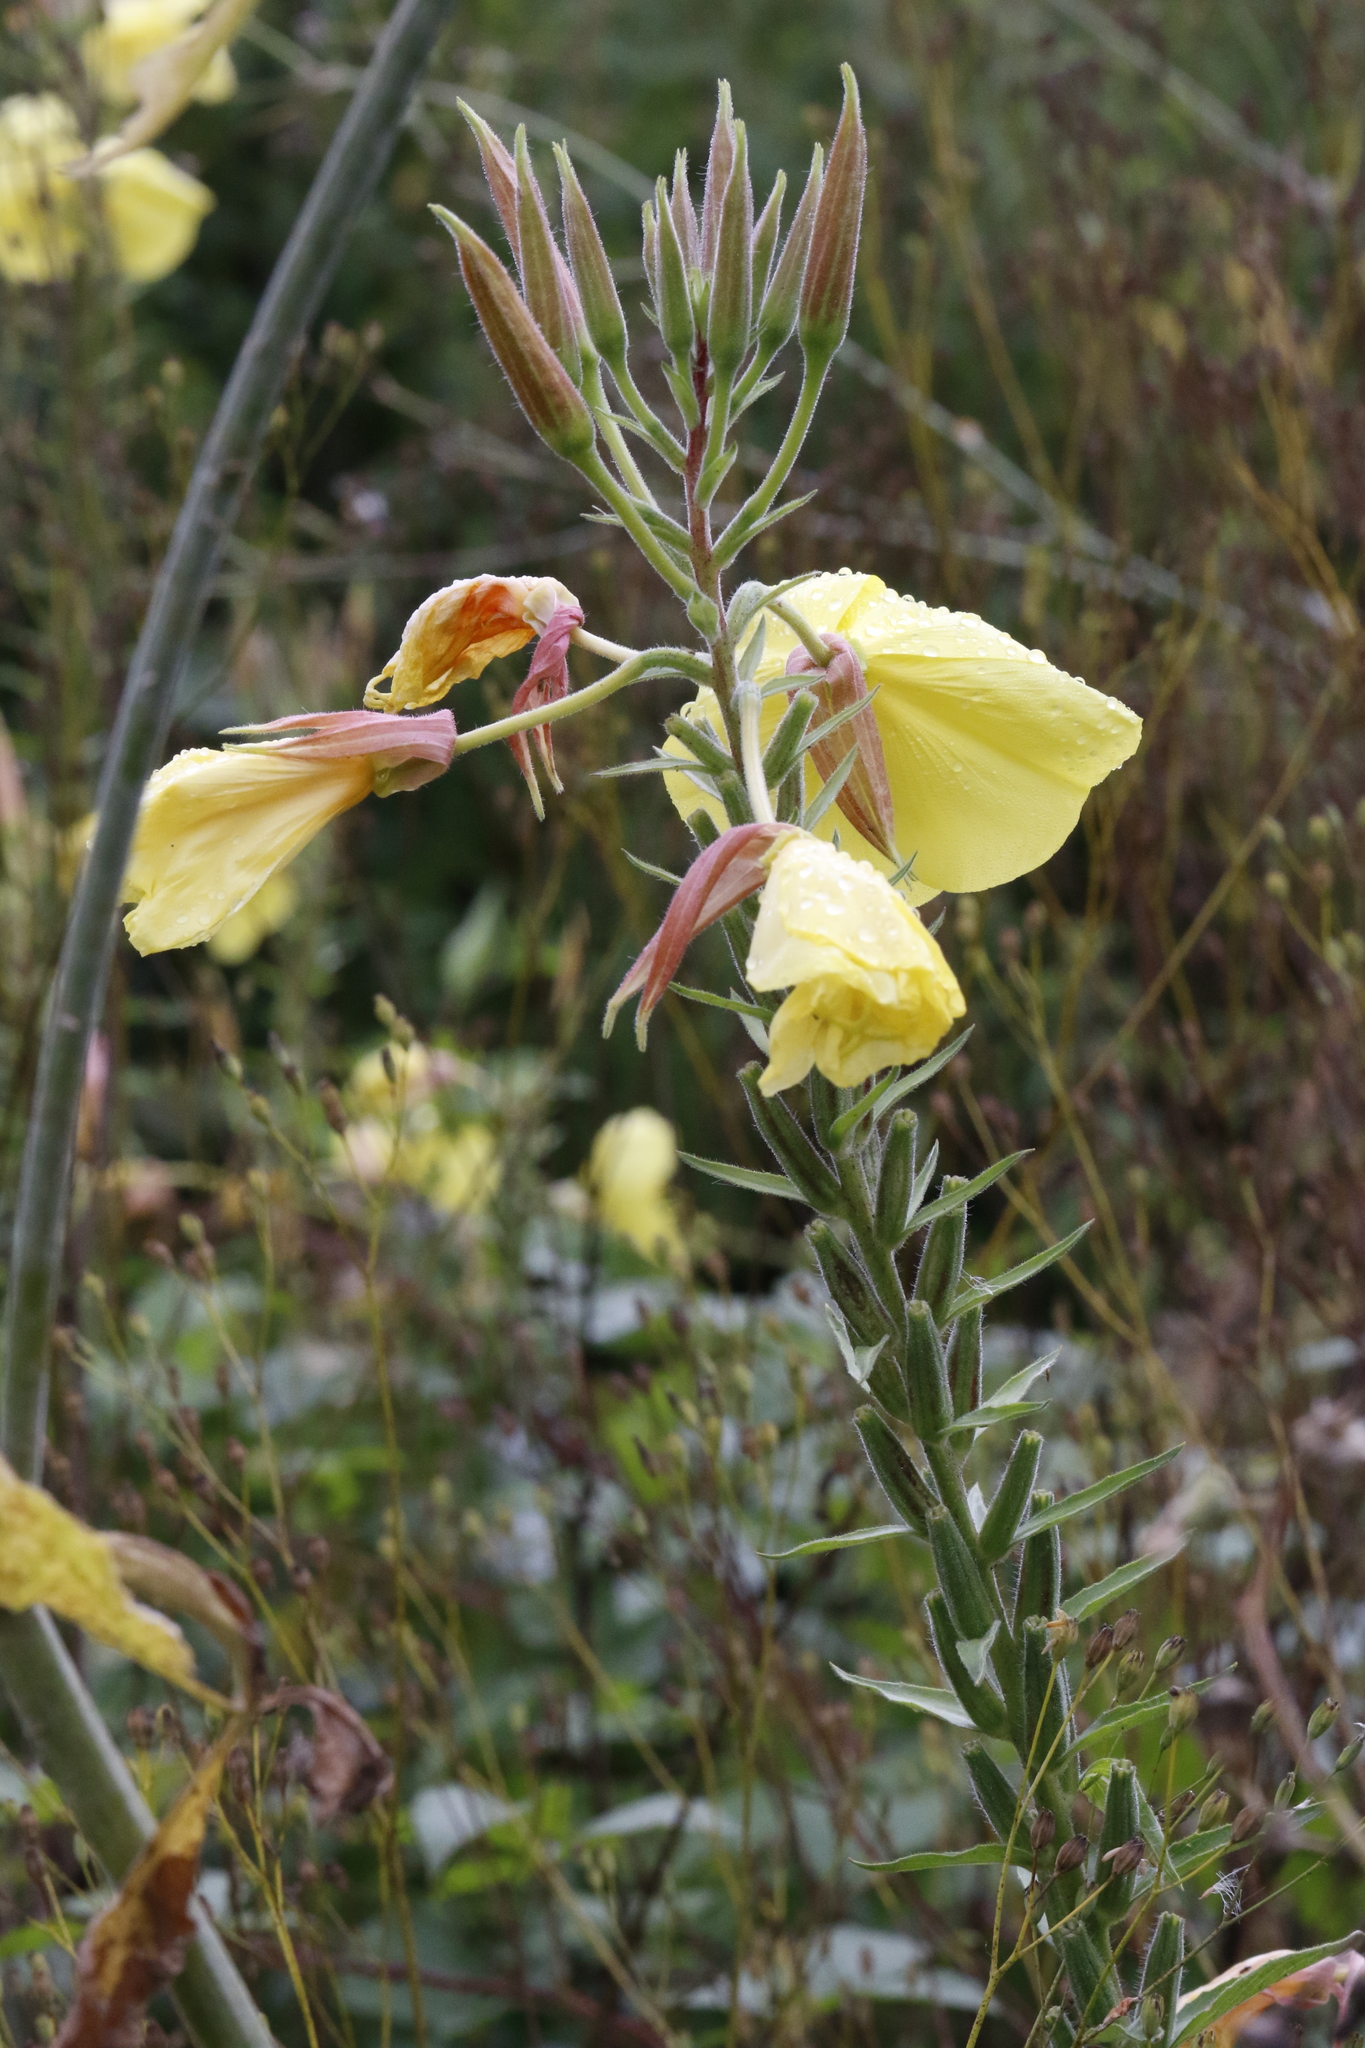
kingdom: Plantae
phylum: Tracheophyta
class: Magnoliopsida
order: Myrtales
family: Onagraceae
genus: Oenothera
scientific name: Oenothera glazioviana
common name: Large-flowered evening-primrose
